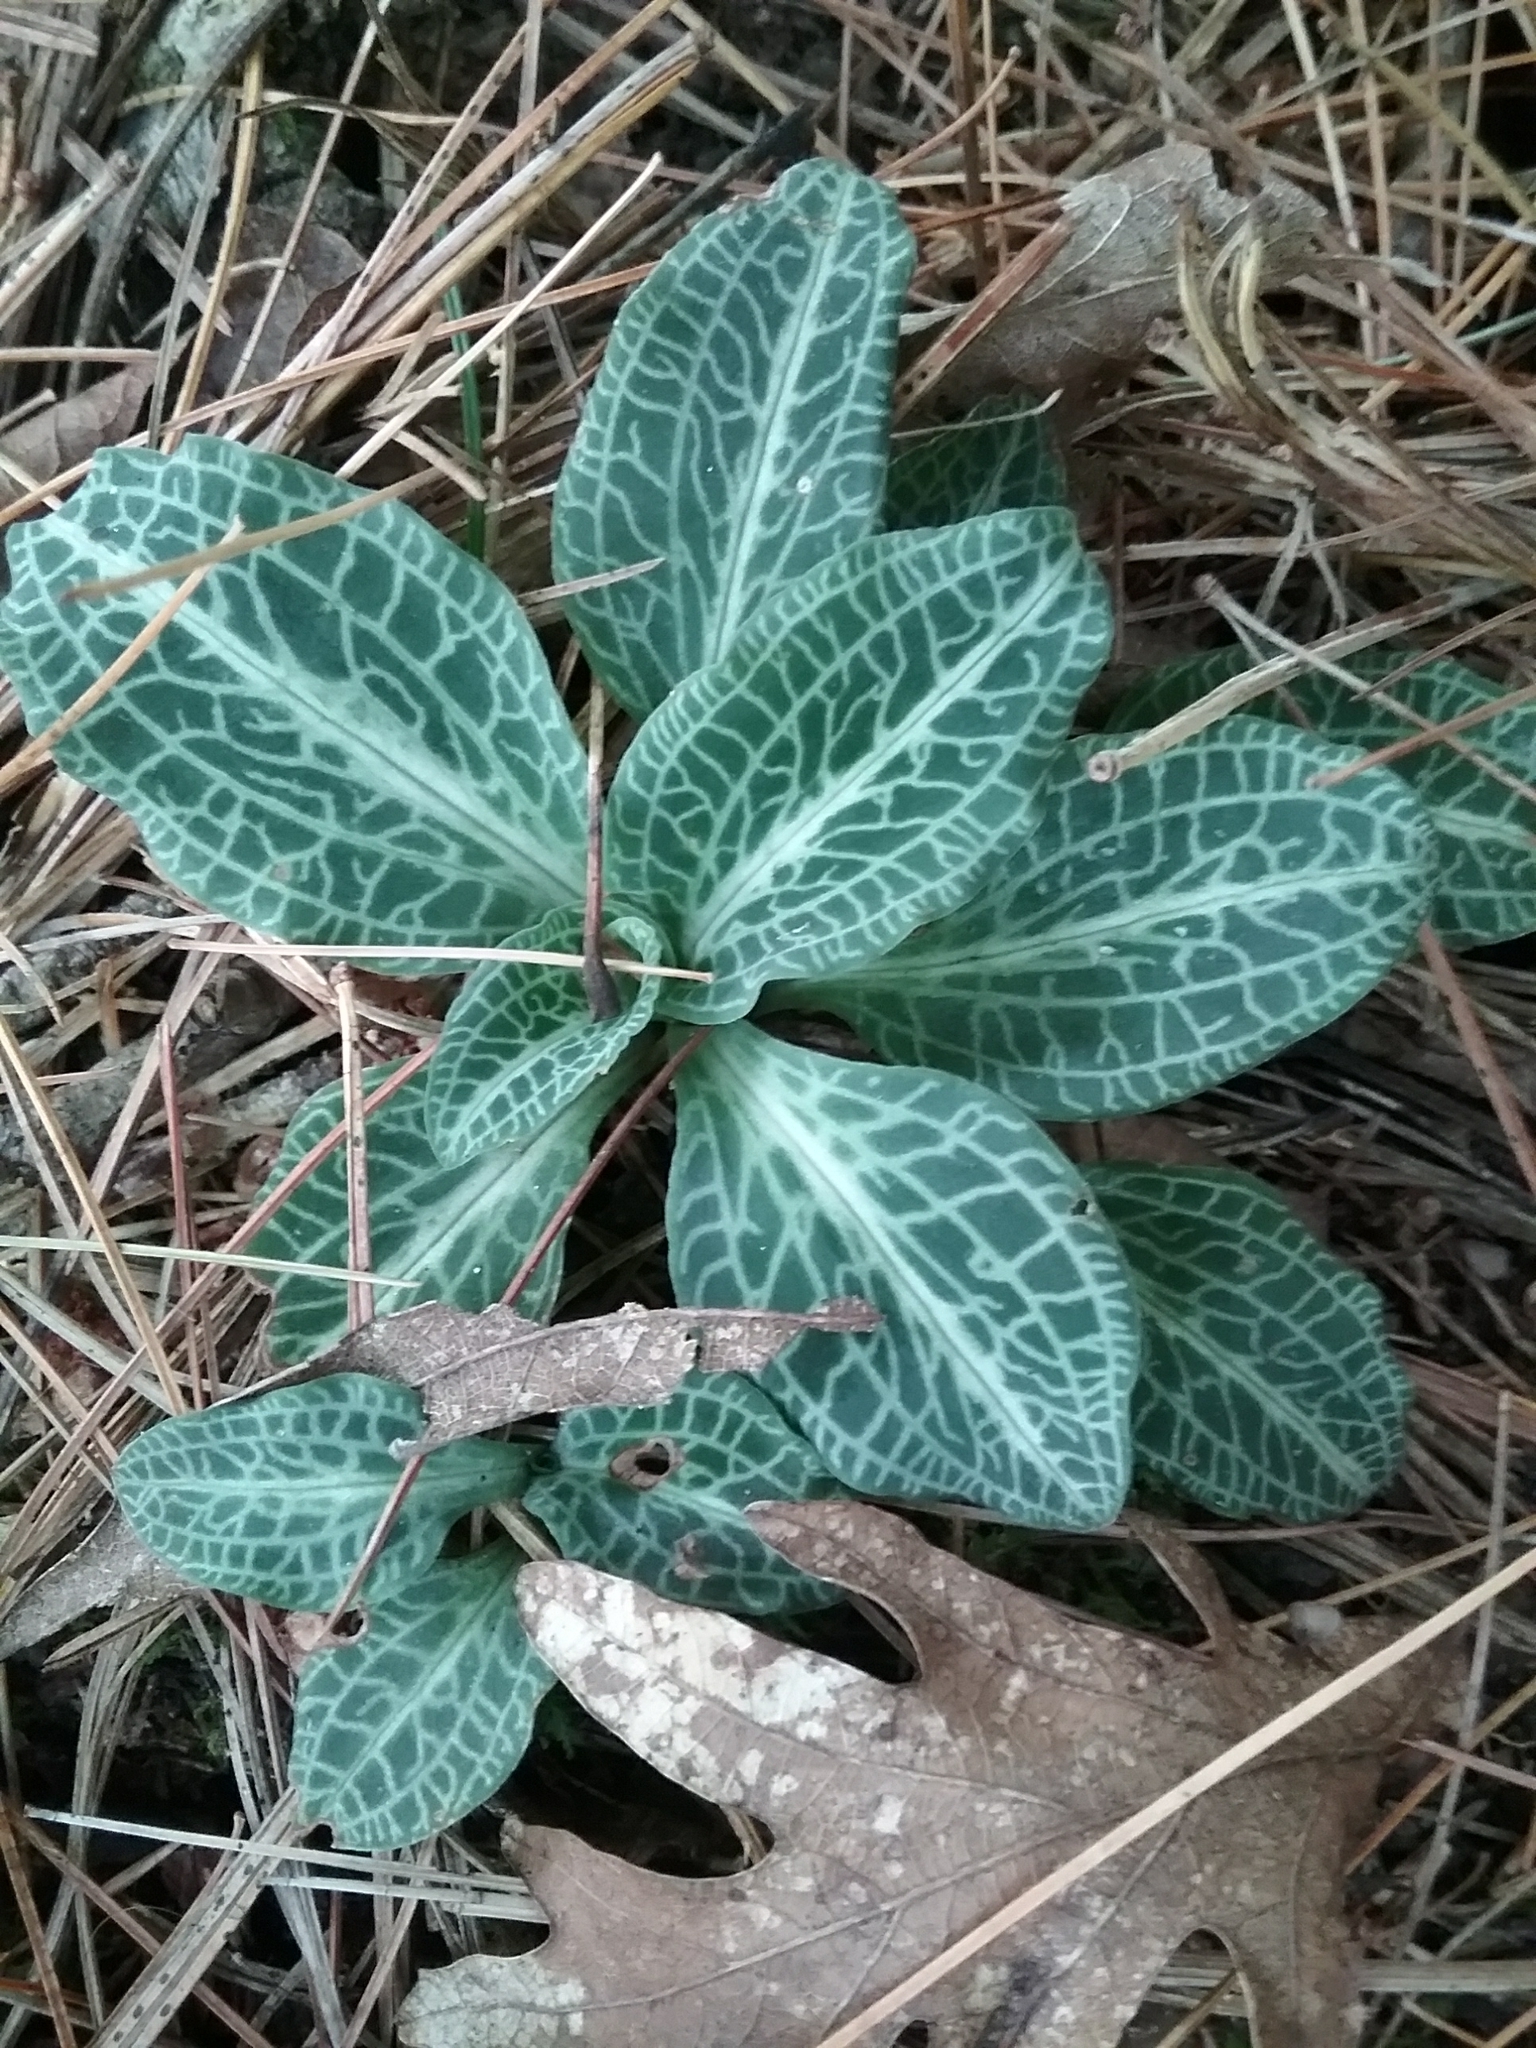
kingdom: Plantae
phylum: Tracheophyta
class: Liliopsida
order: Asparagales
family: Orchidaceae
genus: Goodyera
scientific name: Goodyera pubescens
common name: Downy rattlesnake-plantain
